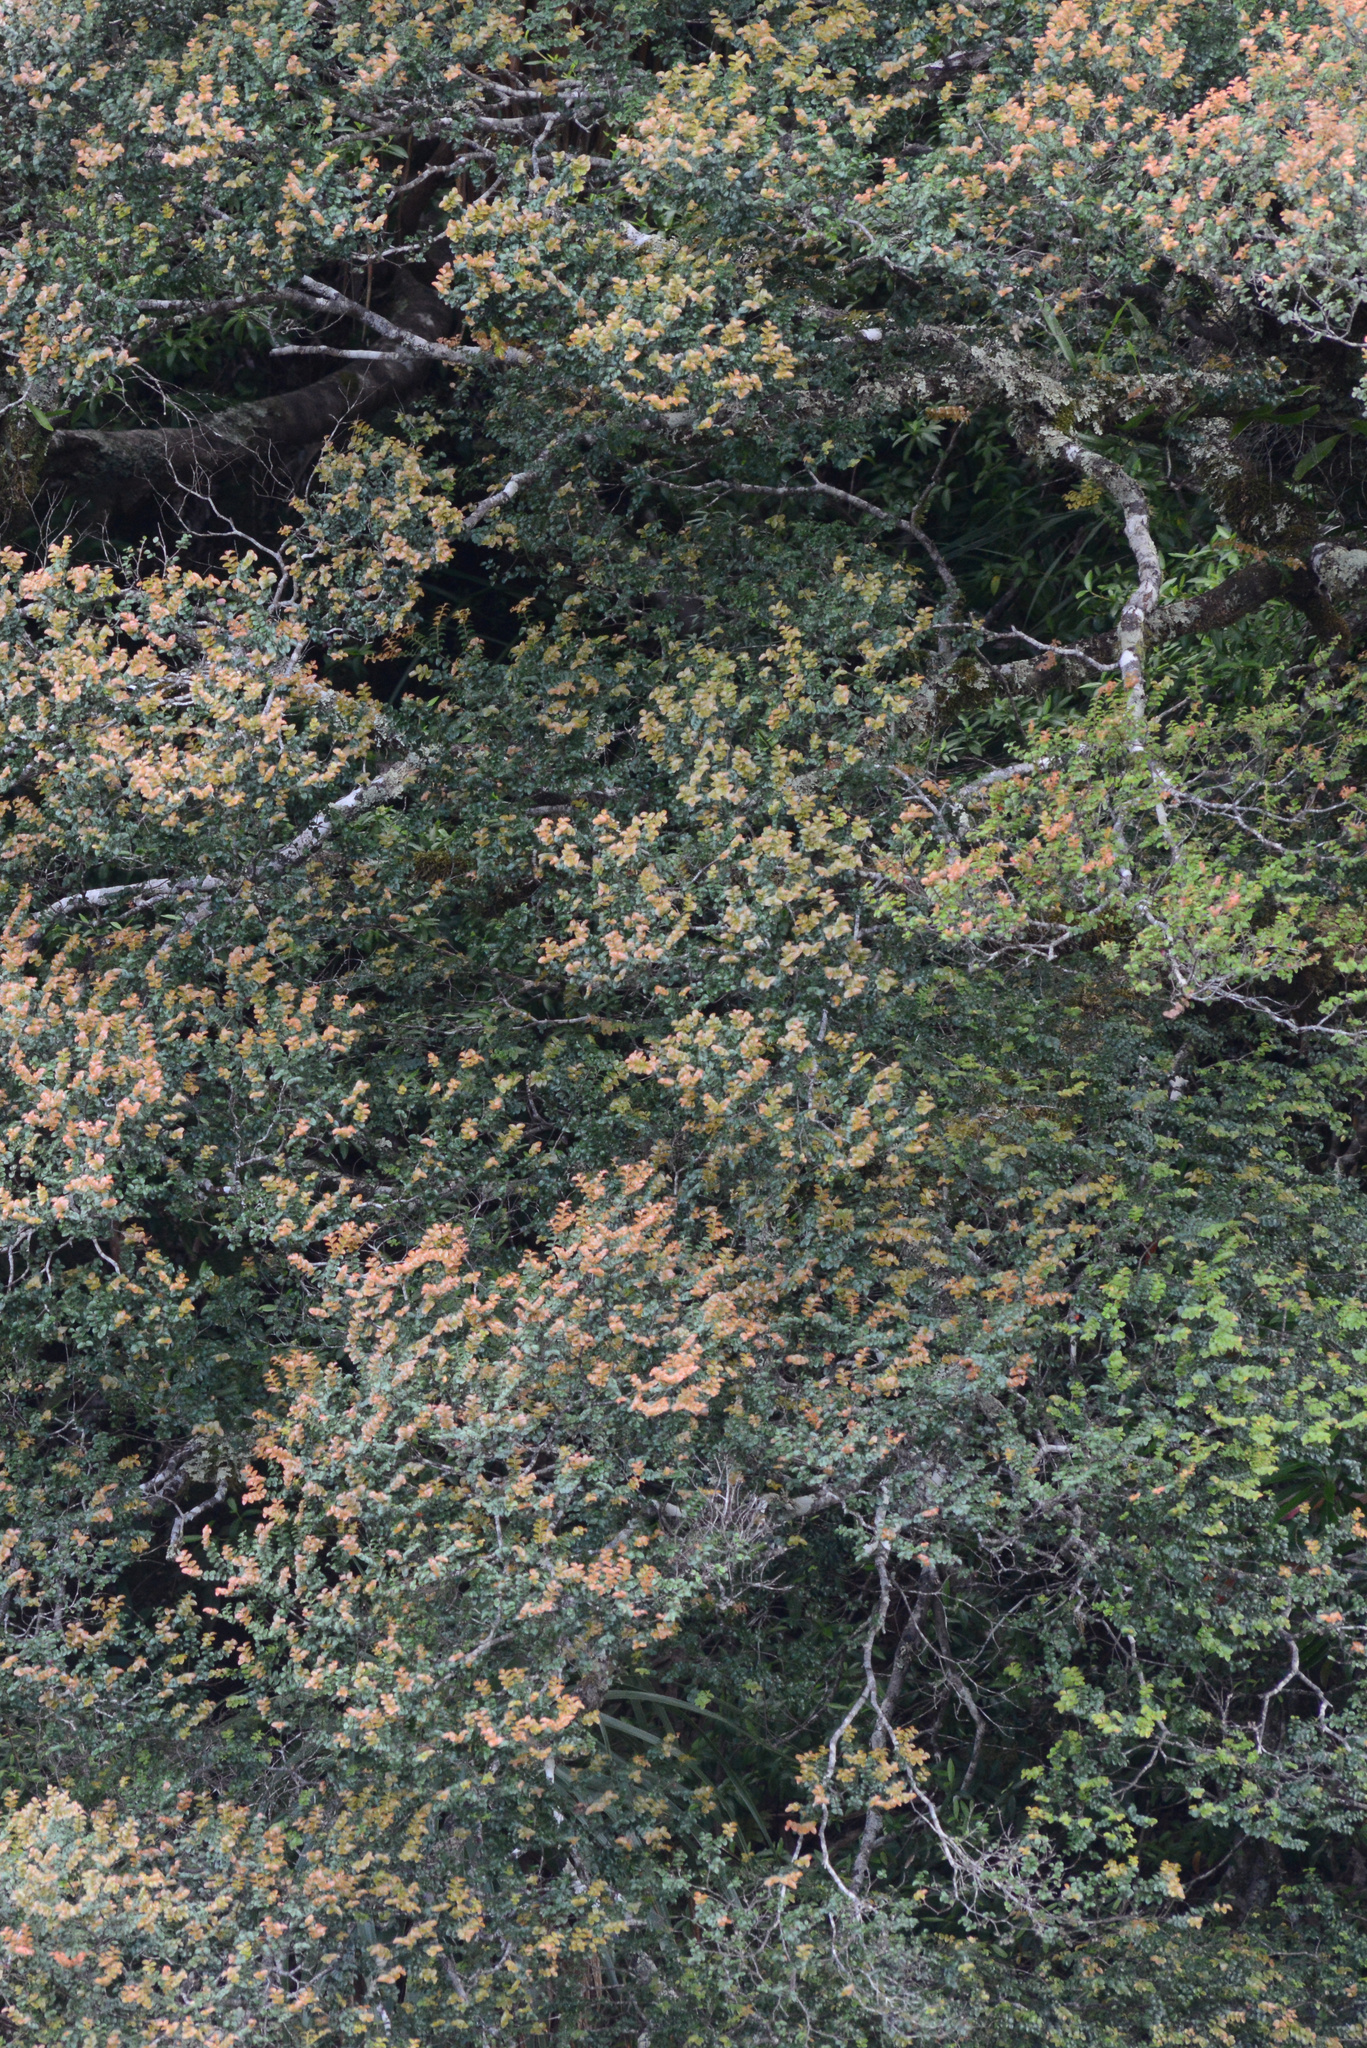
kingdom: Plantae
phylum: Tracheophyta
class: Magnoliopsida
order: Fagales
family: Nothofagaceae
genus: Nothofagus
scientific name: Nothofagus cunninghamii
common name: Myrtle beech
